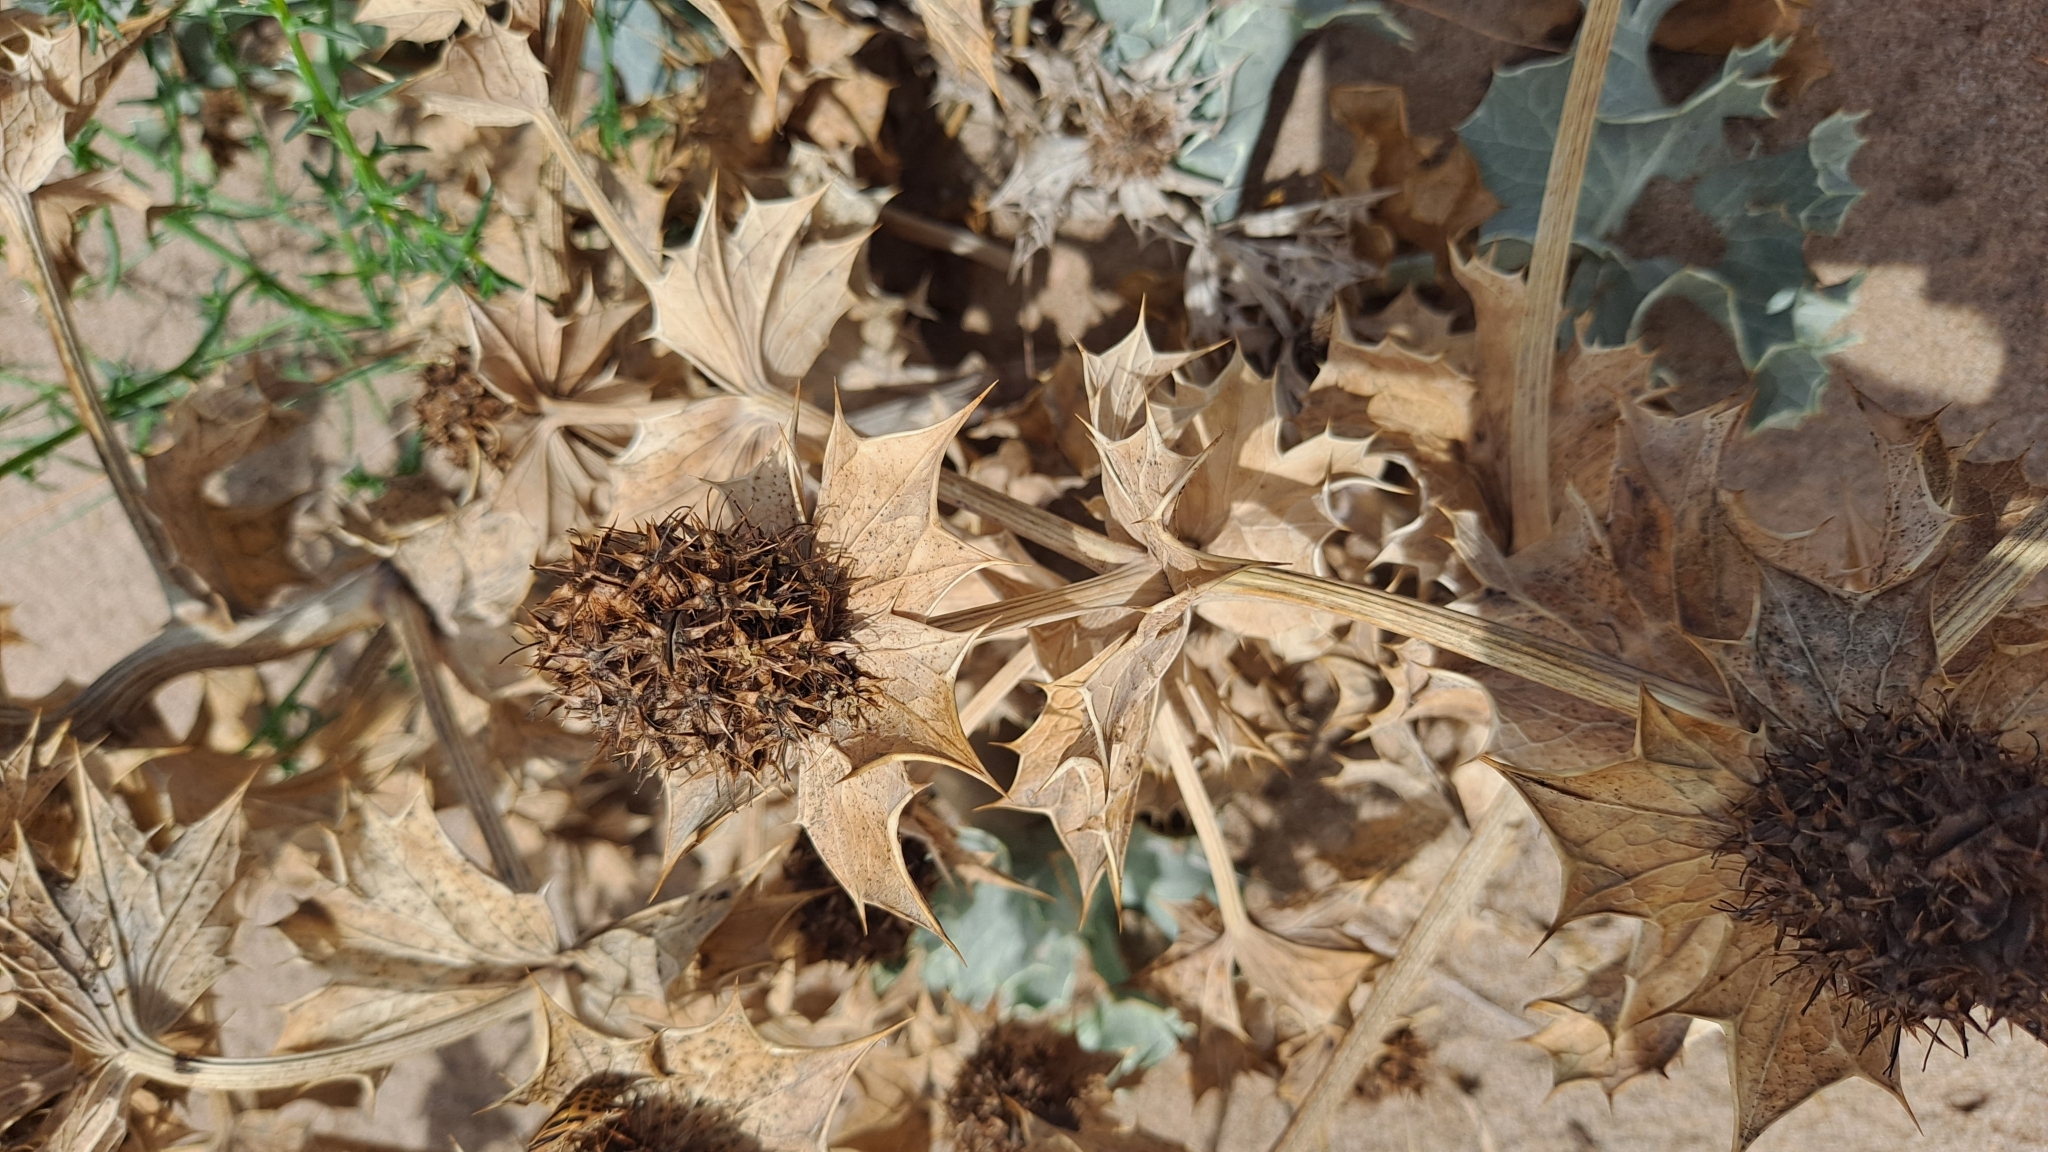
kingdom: Plantae
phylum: Tracheophyta
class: Magnoliopsida
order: Apiales
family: Apiaceae
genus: Eryngium
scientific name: Eryngium maritimum
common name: Sea-holly
